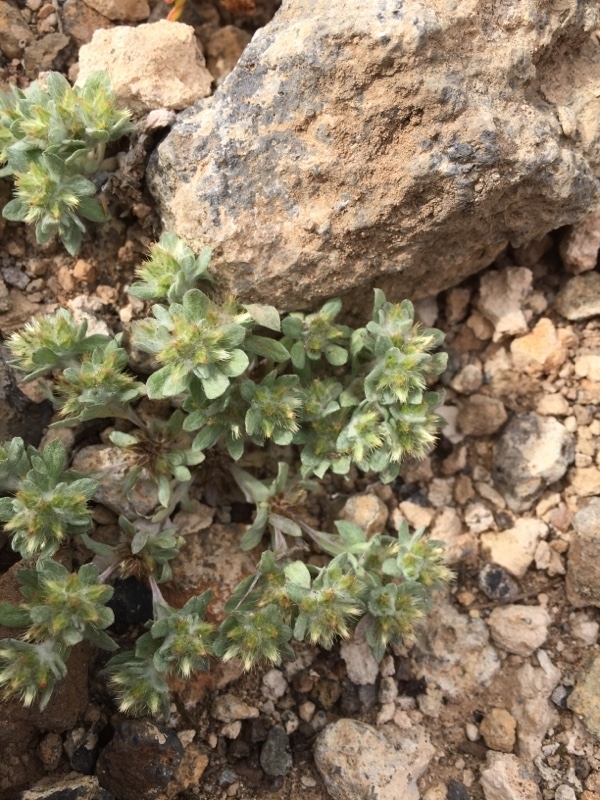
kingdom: Plantae
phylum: Tracheophyta
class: Magnoliopsida
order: Asterales
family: Asteraceae
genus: Filago
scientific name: Filago pyramidata
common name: Broad-leaved cudweed
